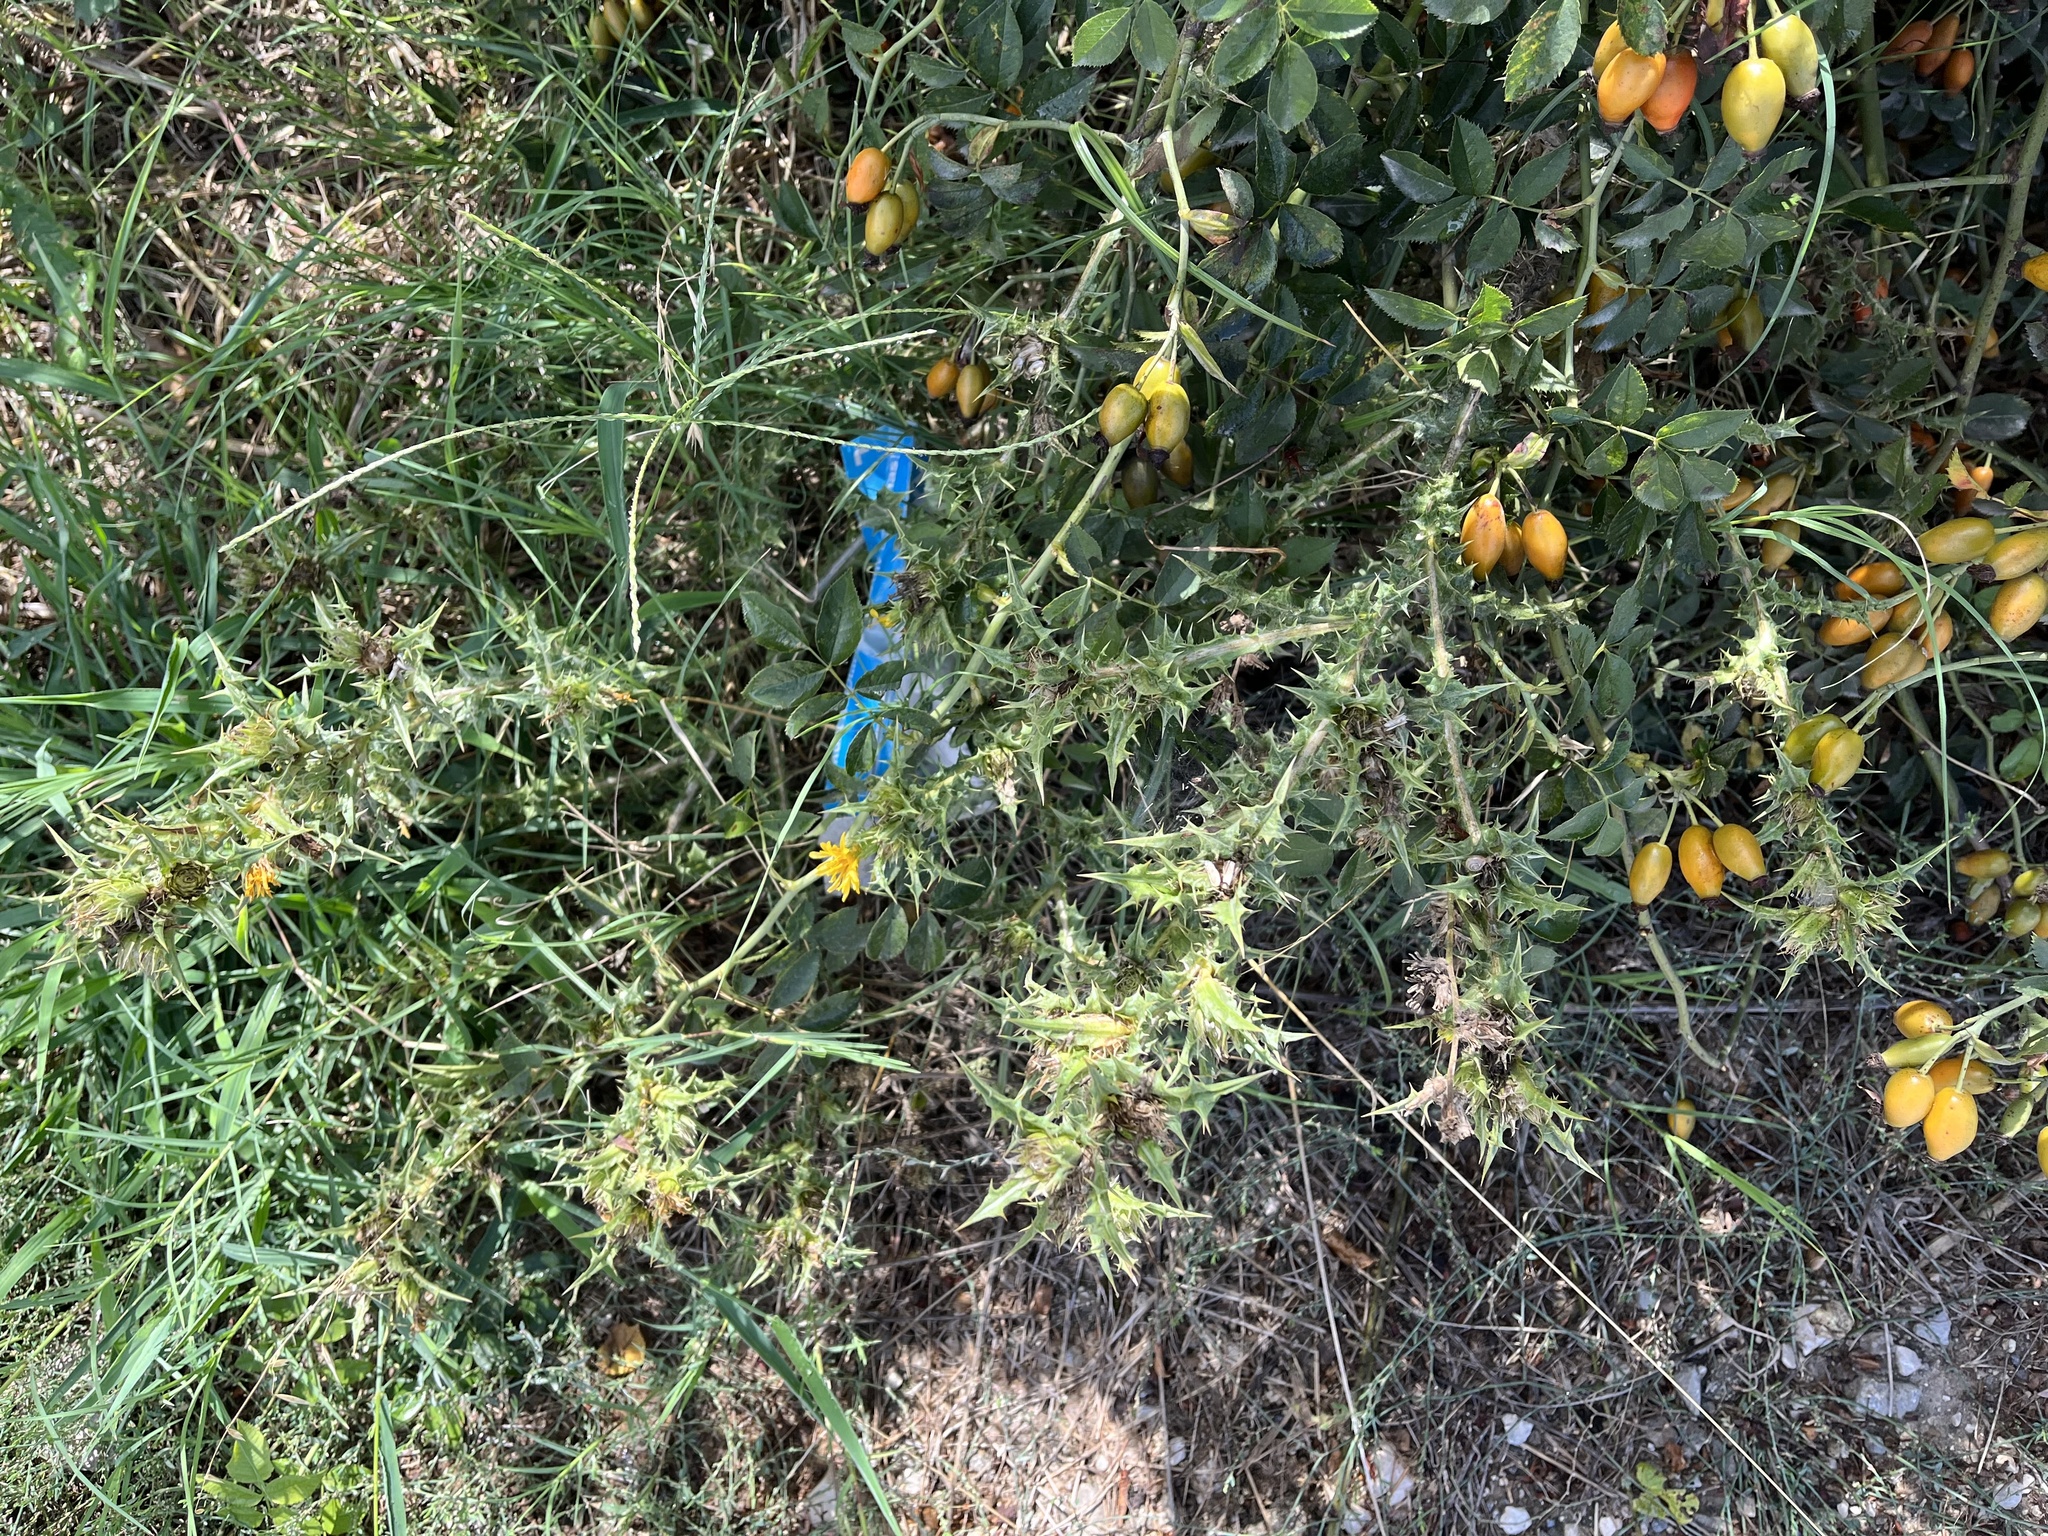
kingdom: Plantae
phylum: Tracheophyta
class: Magnoliopsida
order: Asterales
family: Asteraceae
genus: Scolymus
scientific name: Scolymus hispanicus
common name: Golden thistle
